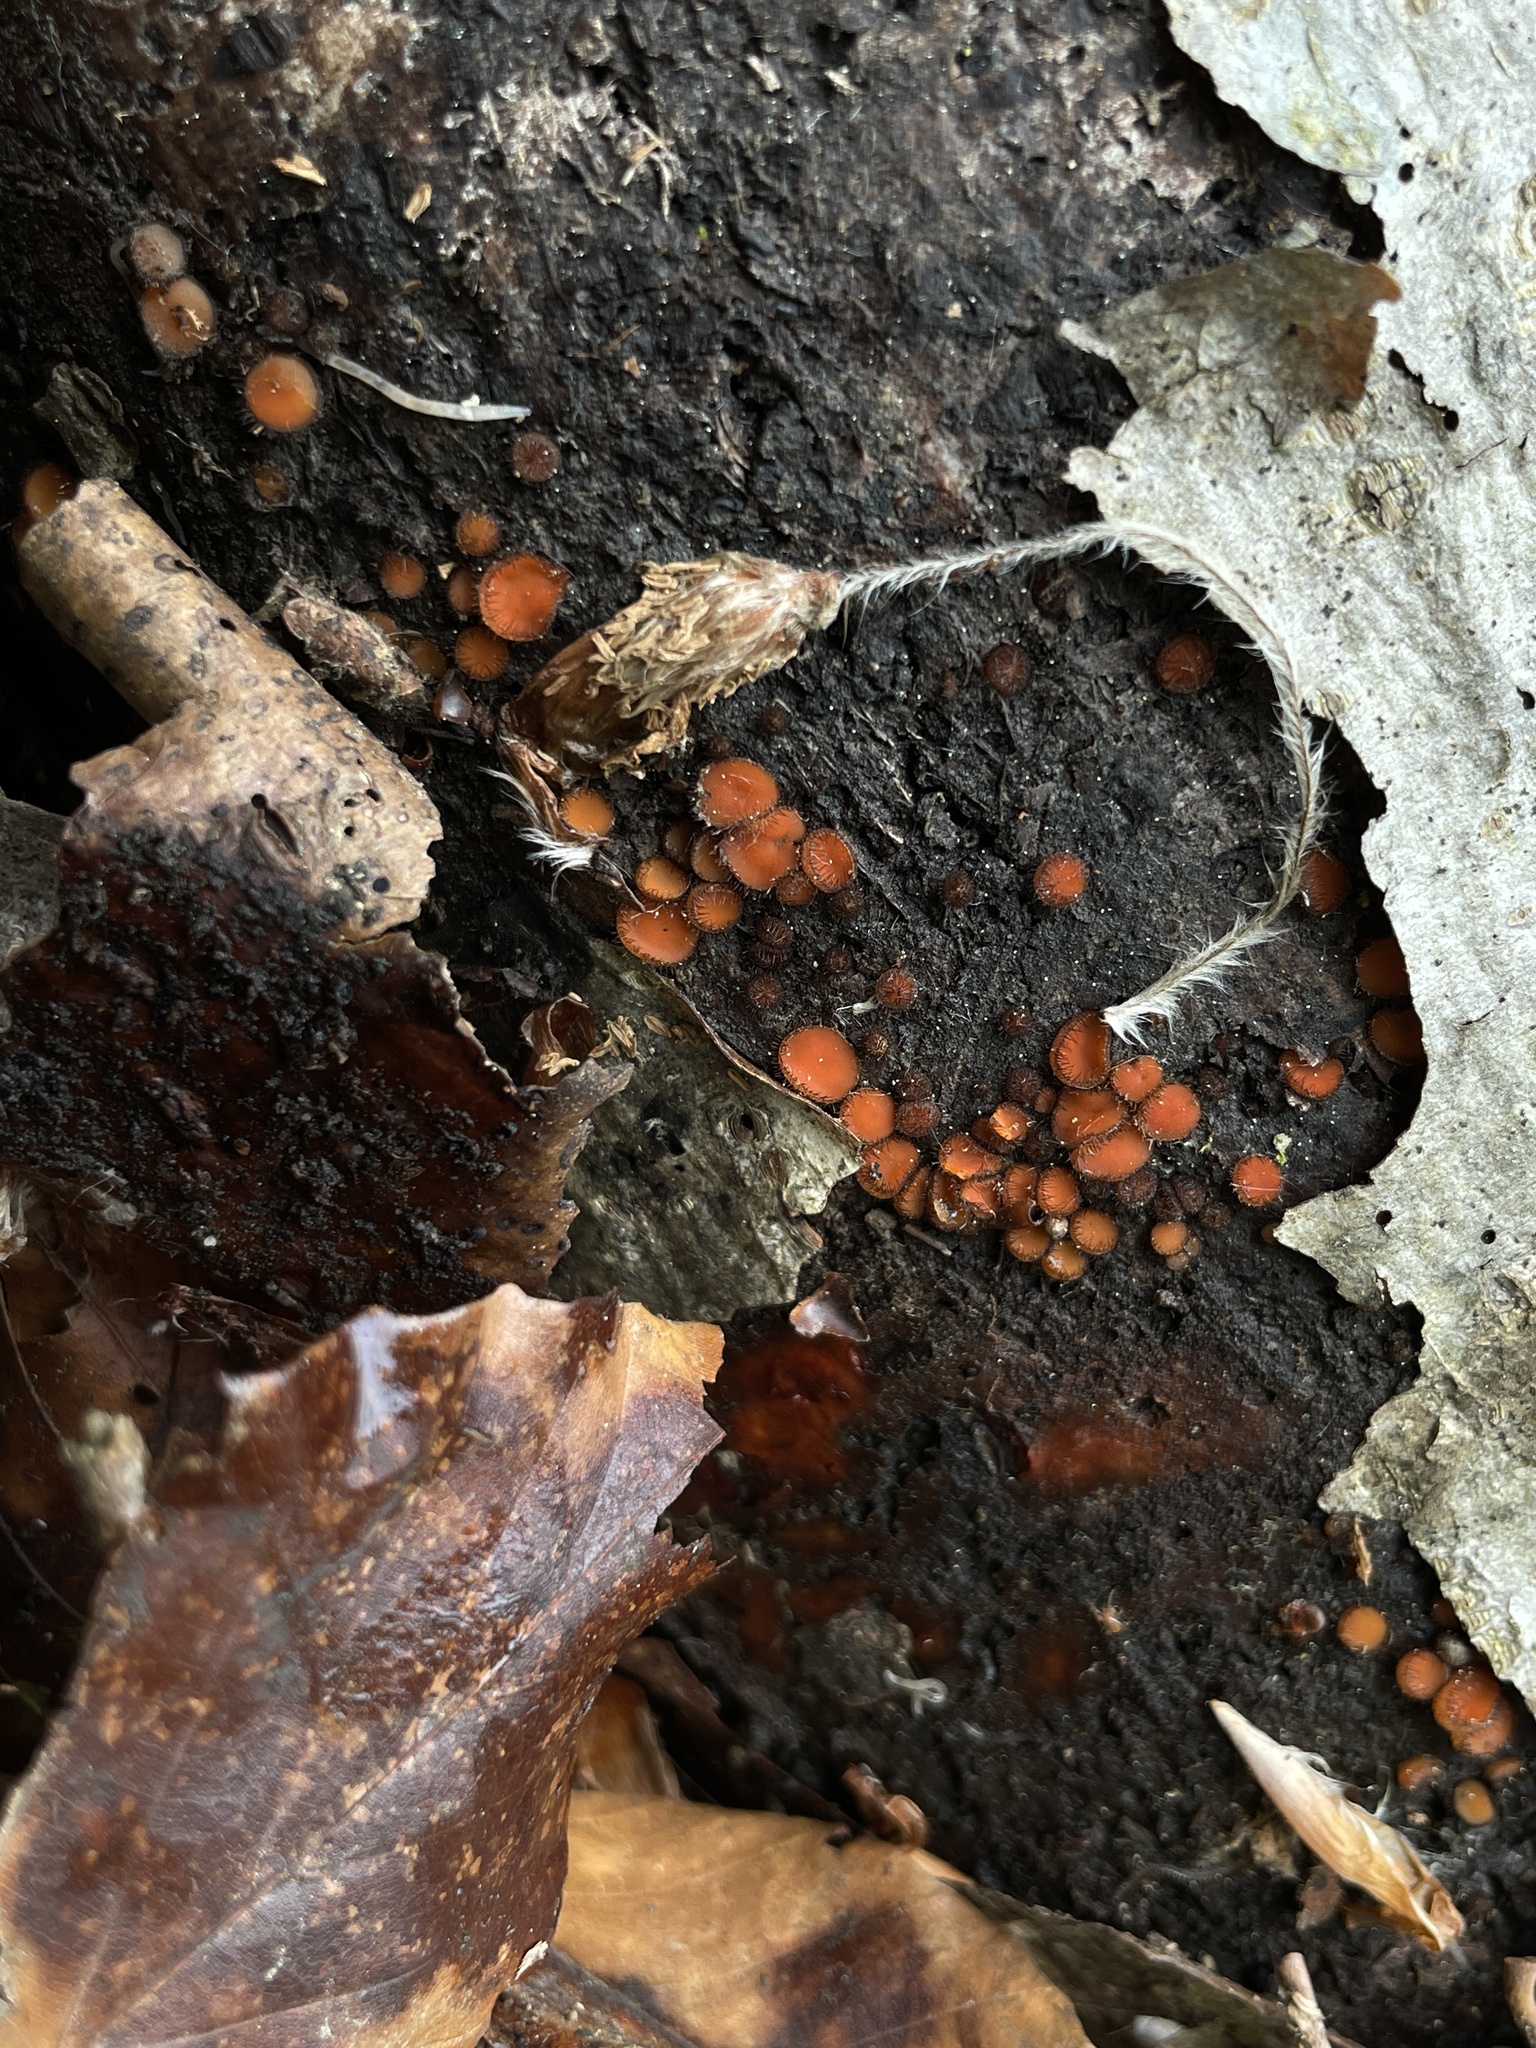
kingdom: Fungi
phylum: Ascomycota
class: Pezizomycetes
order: Pezizales
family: Pyronemataceae
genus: Scutellinia
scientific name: Scutellinia
